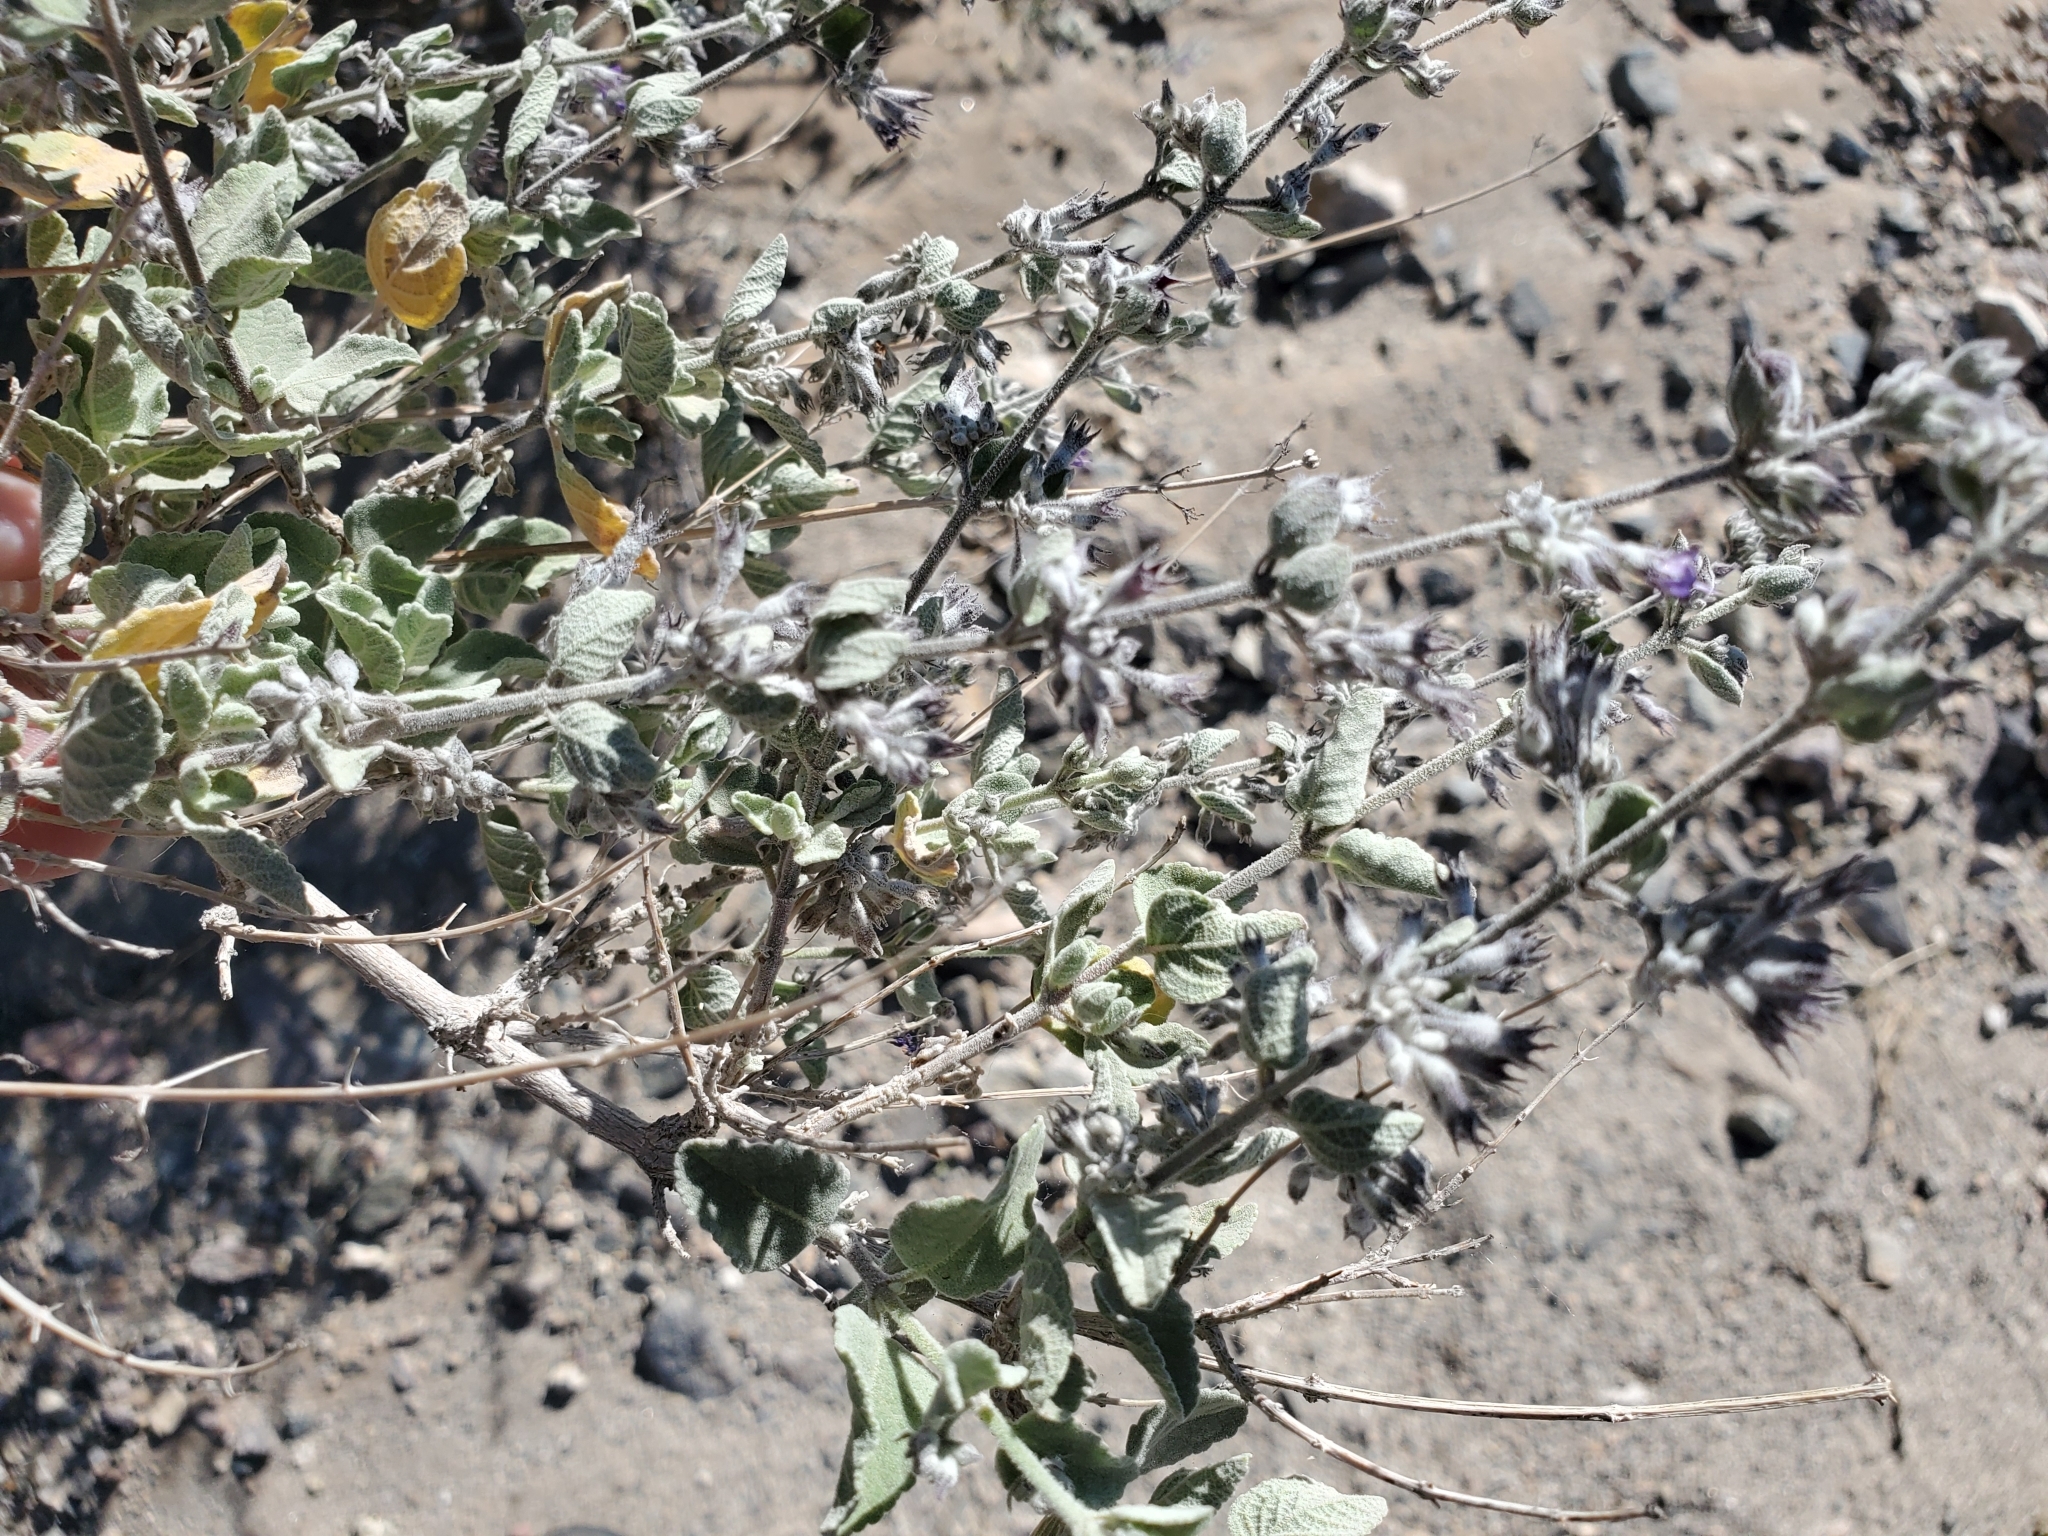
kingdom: Plantae
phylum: Tracheophyta
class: Magnoliopsida
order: Lamiales
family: Lamiaceae
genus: Condea
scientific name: Condea emoryi
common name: Chia
